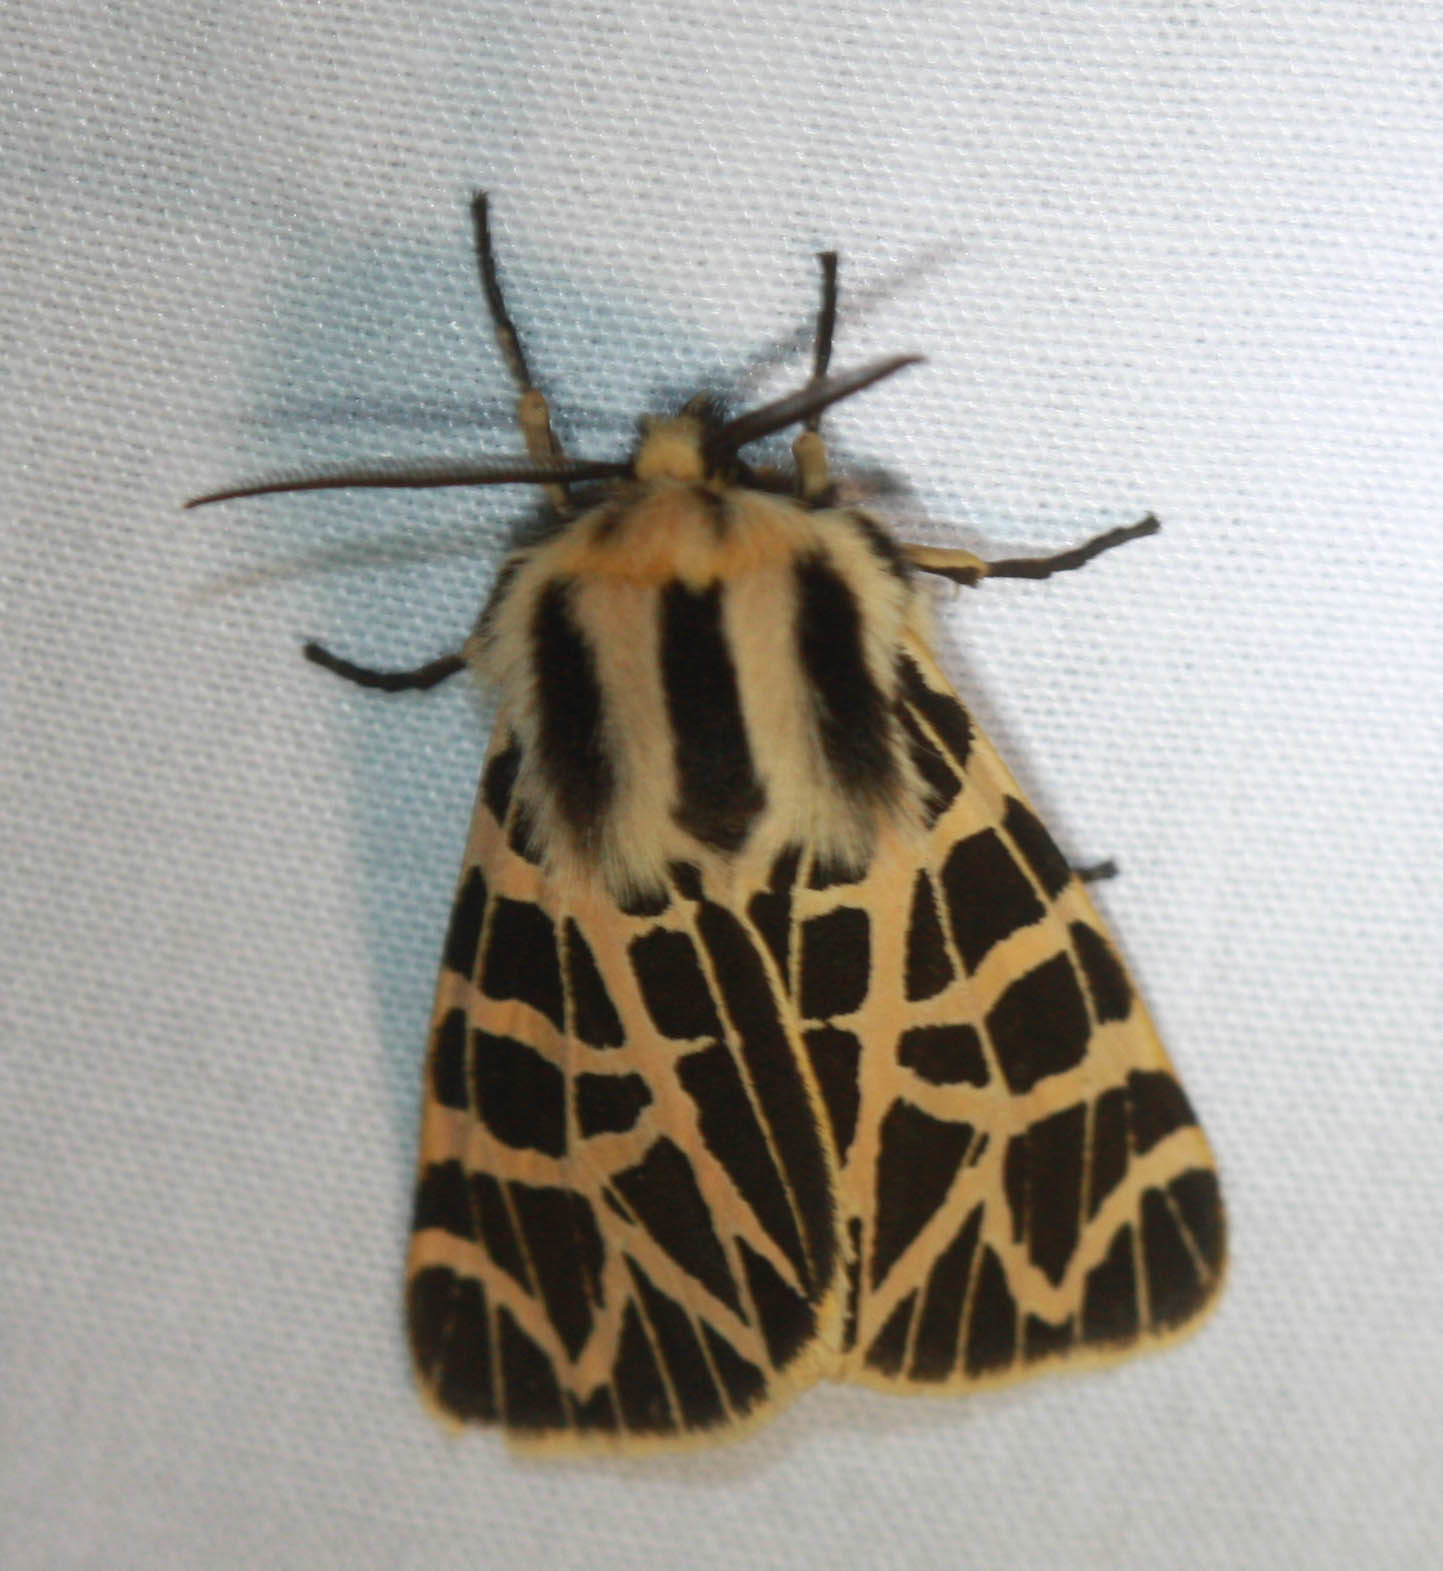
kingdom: Animalia
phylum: Arthropoda
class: Insecta
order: Lepidoptera
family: Erebidae
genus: Apantesis
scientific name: Apantesis
